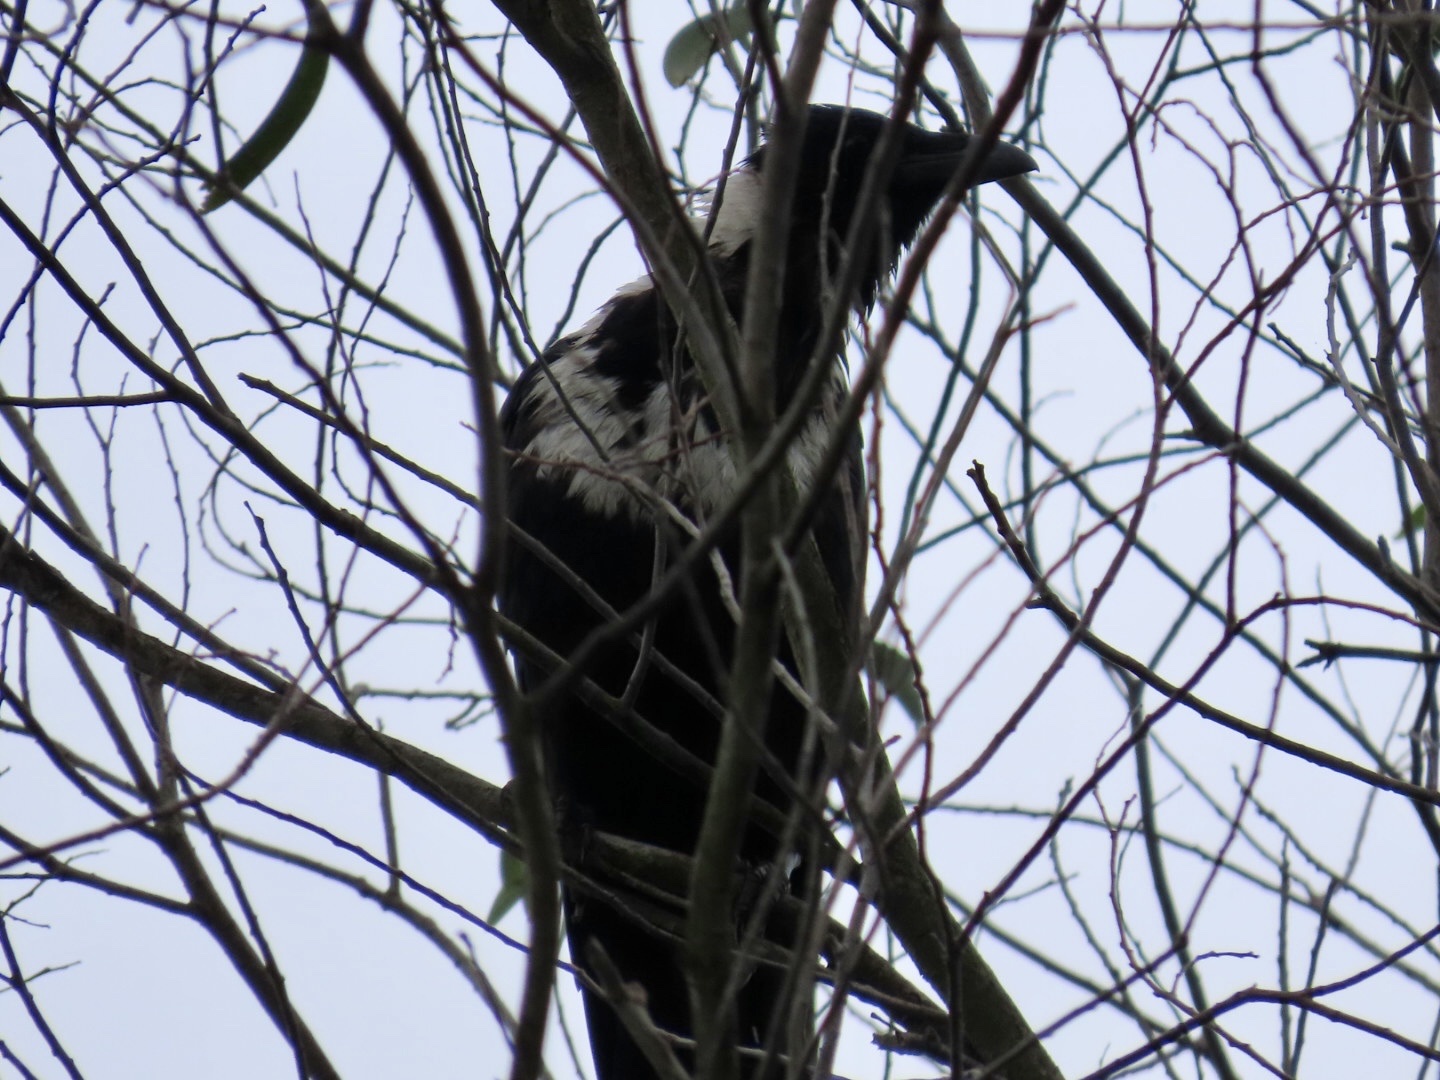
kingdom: Animalia
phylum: Chordata
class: Aves
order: Passeriformes
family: Corvidae
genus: Corvus
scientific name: Corvus pectoralis
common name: Collared crow
